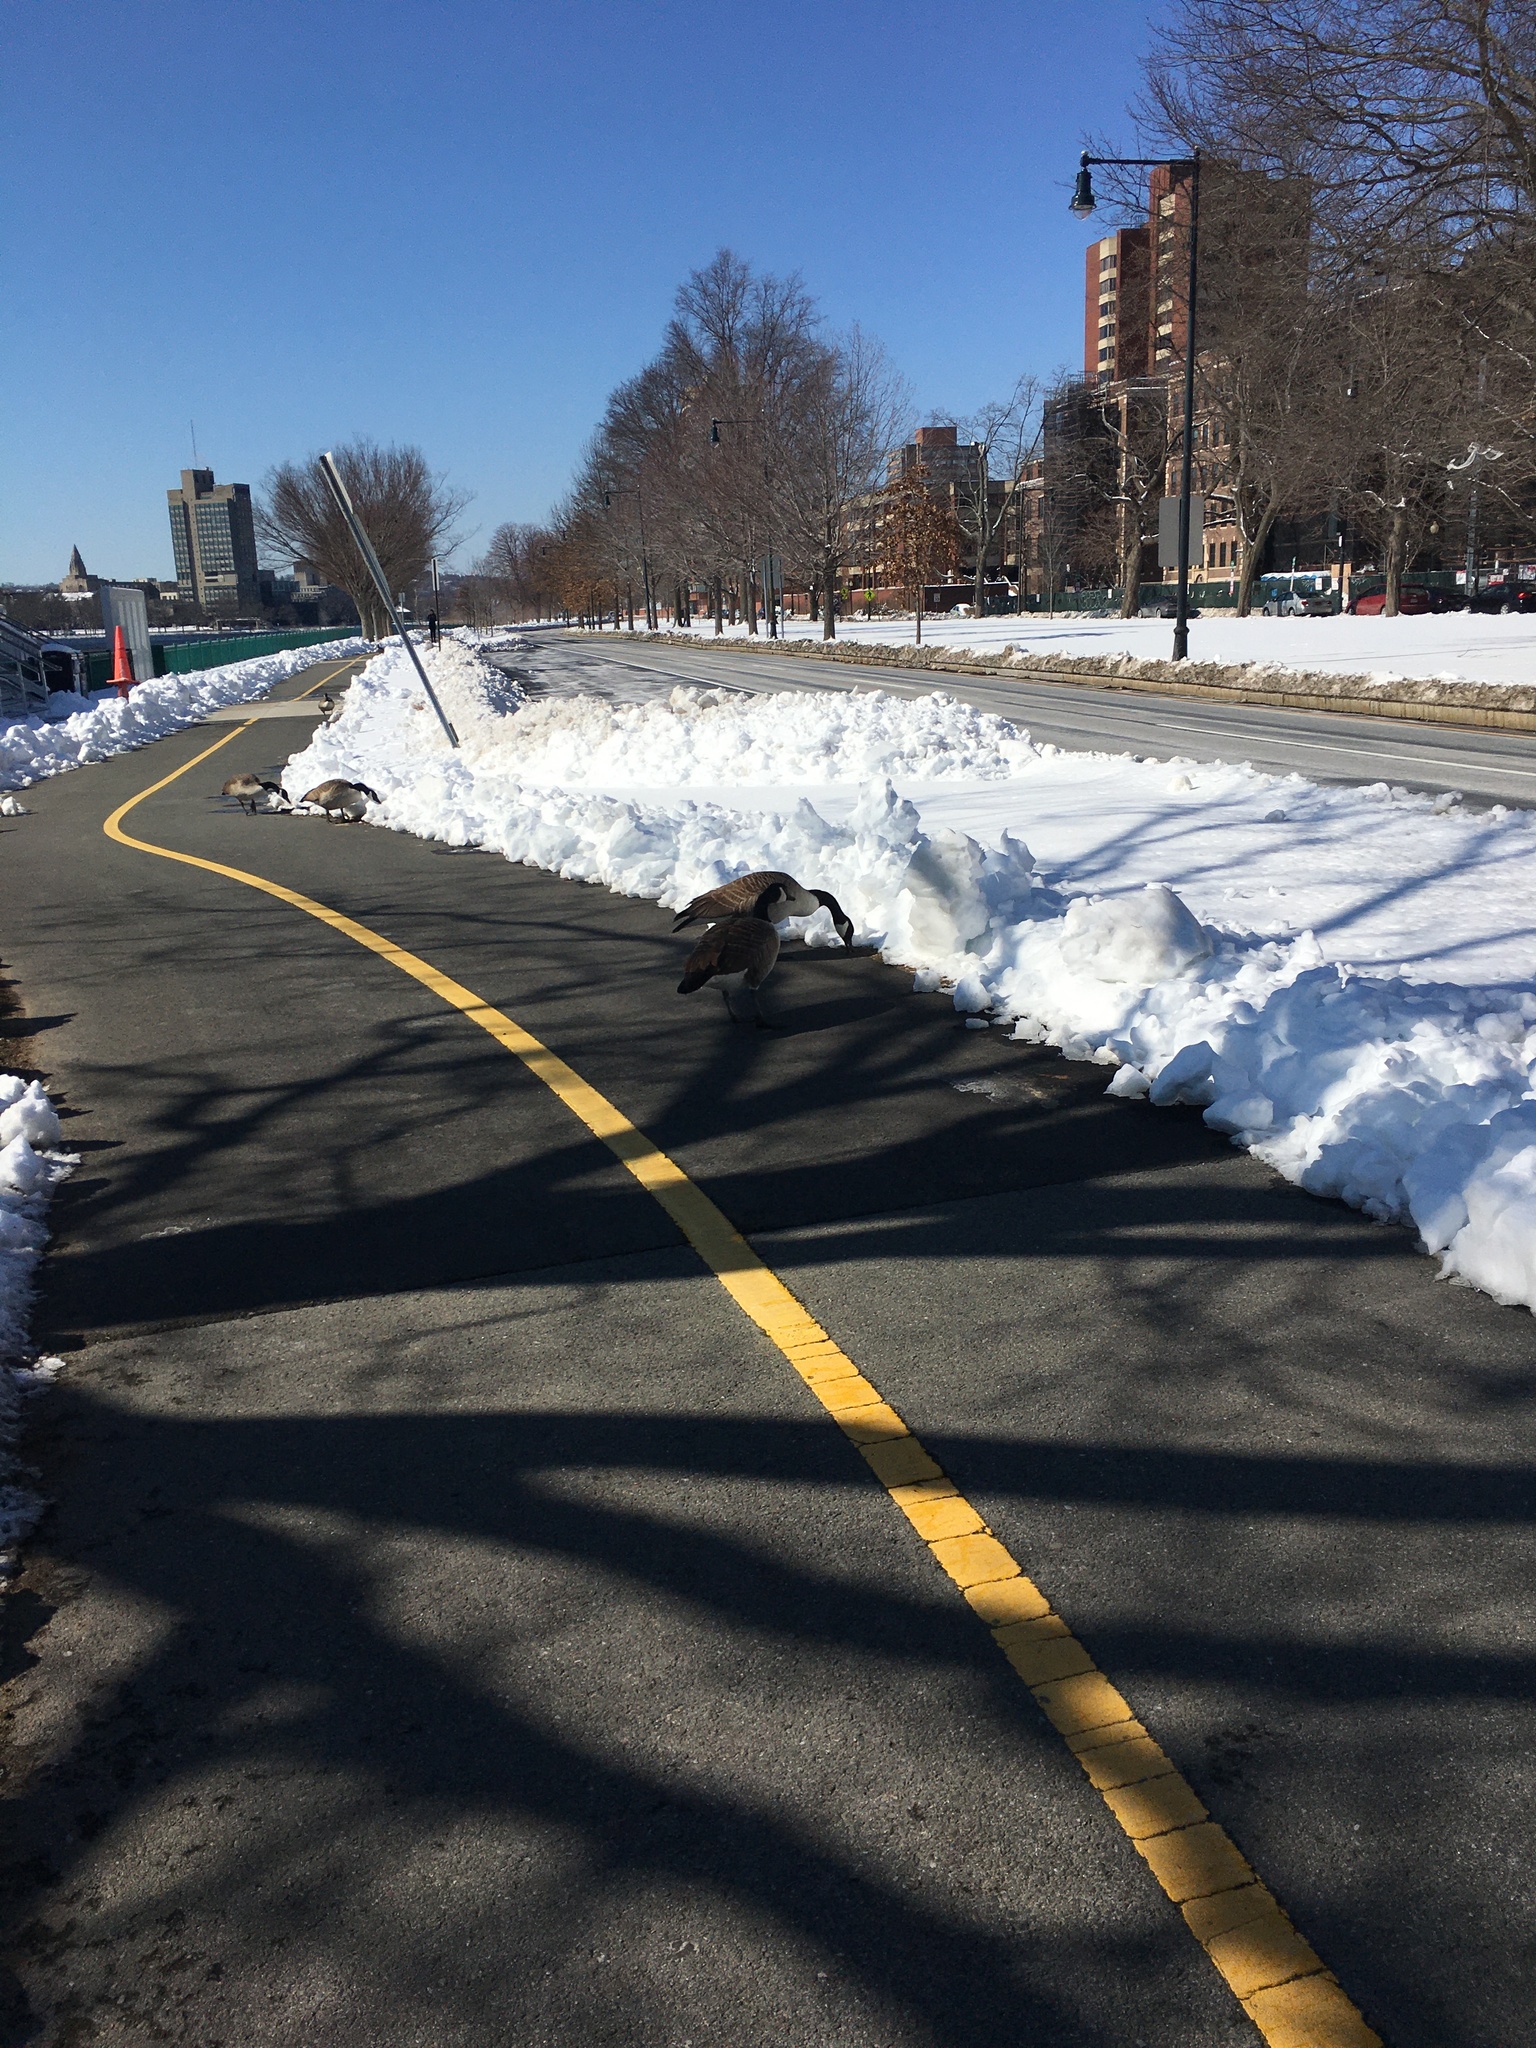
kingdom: Animalia
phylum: Chordata
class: Aves
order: Anseriformes
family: Anatidae
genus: Branta
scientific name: Branta canadensis
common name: Canada goose
